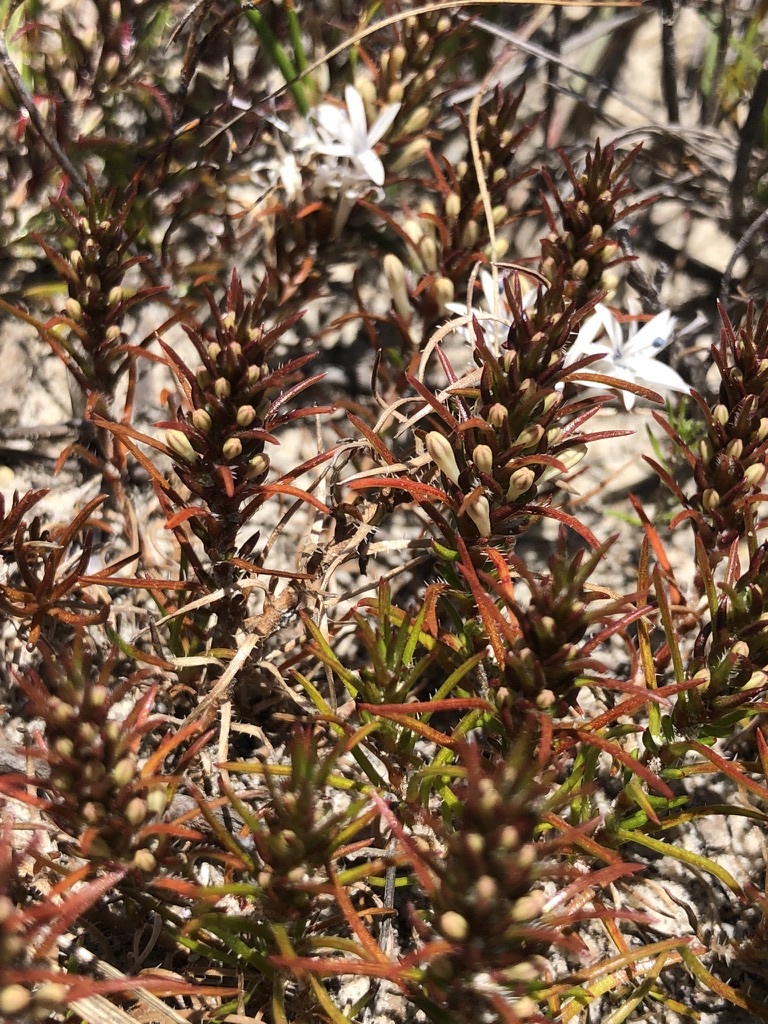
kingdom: Plantae
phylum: Tracheophyta
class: Magnoliopsida
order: Asterales
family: Campanulaceae
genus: Merciera
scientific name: Merciera leptoloba
